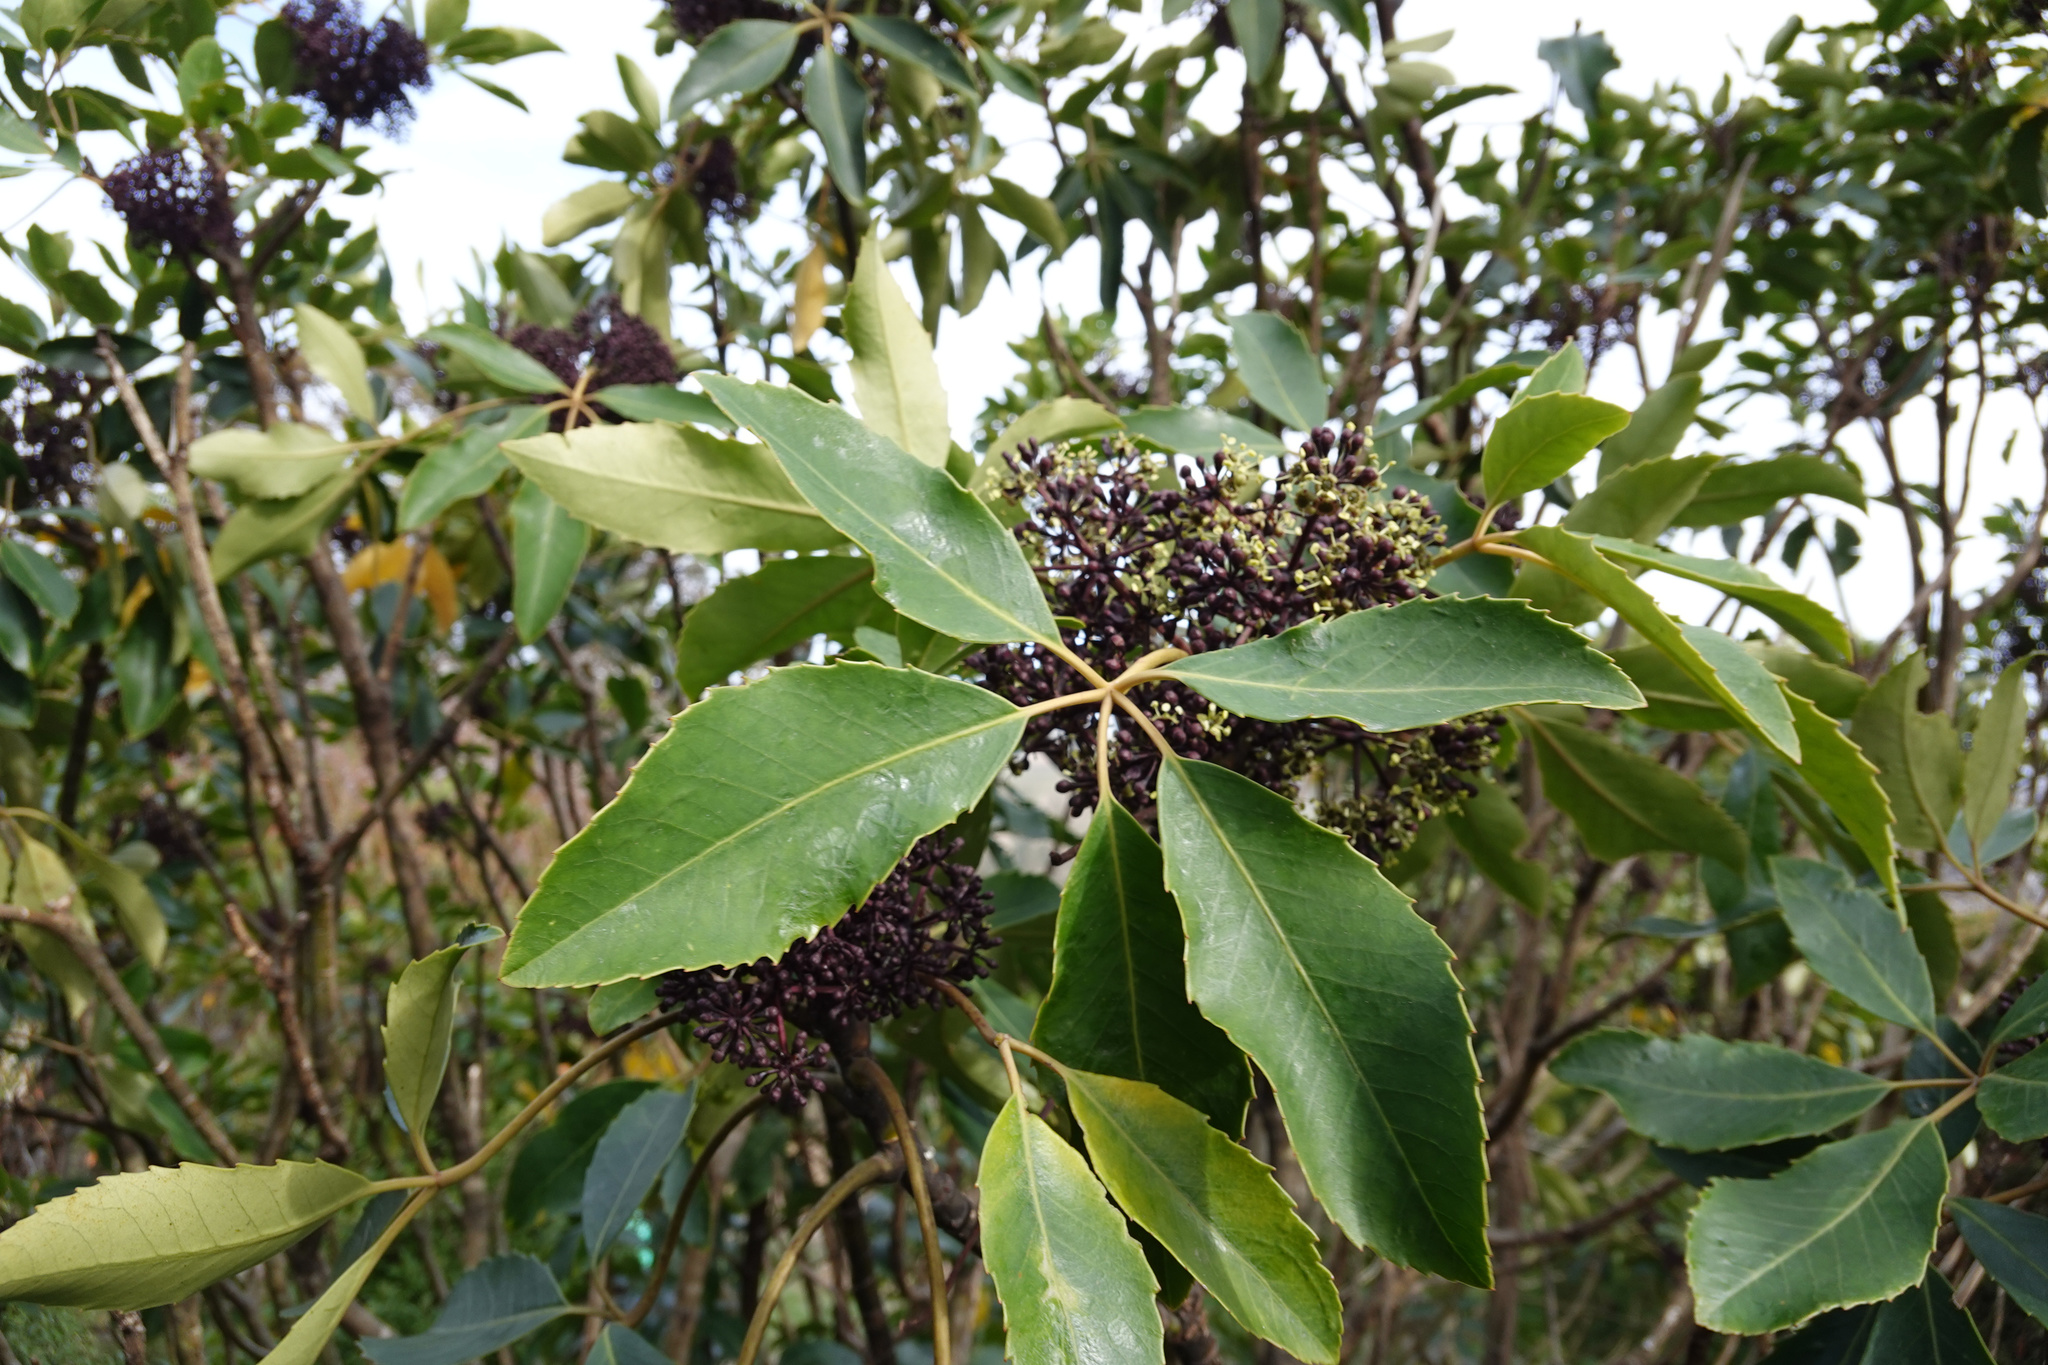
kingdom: Plantae
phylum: Tracheophyta
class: Magnoliopsida
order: Apiales
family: Araliaceae
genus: Neopanax
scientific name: Neopanax arboreus
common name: Five-fingers
